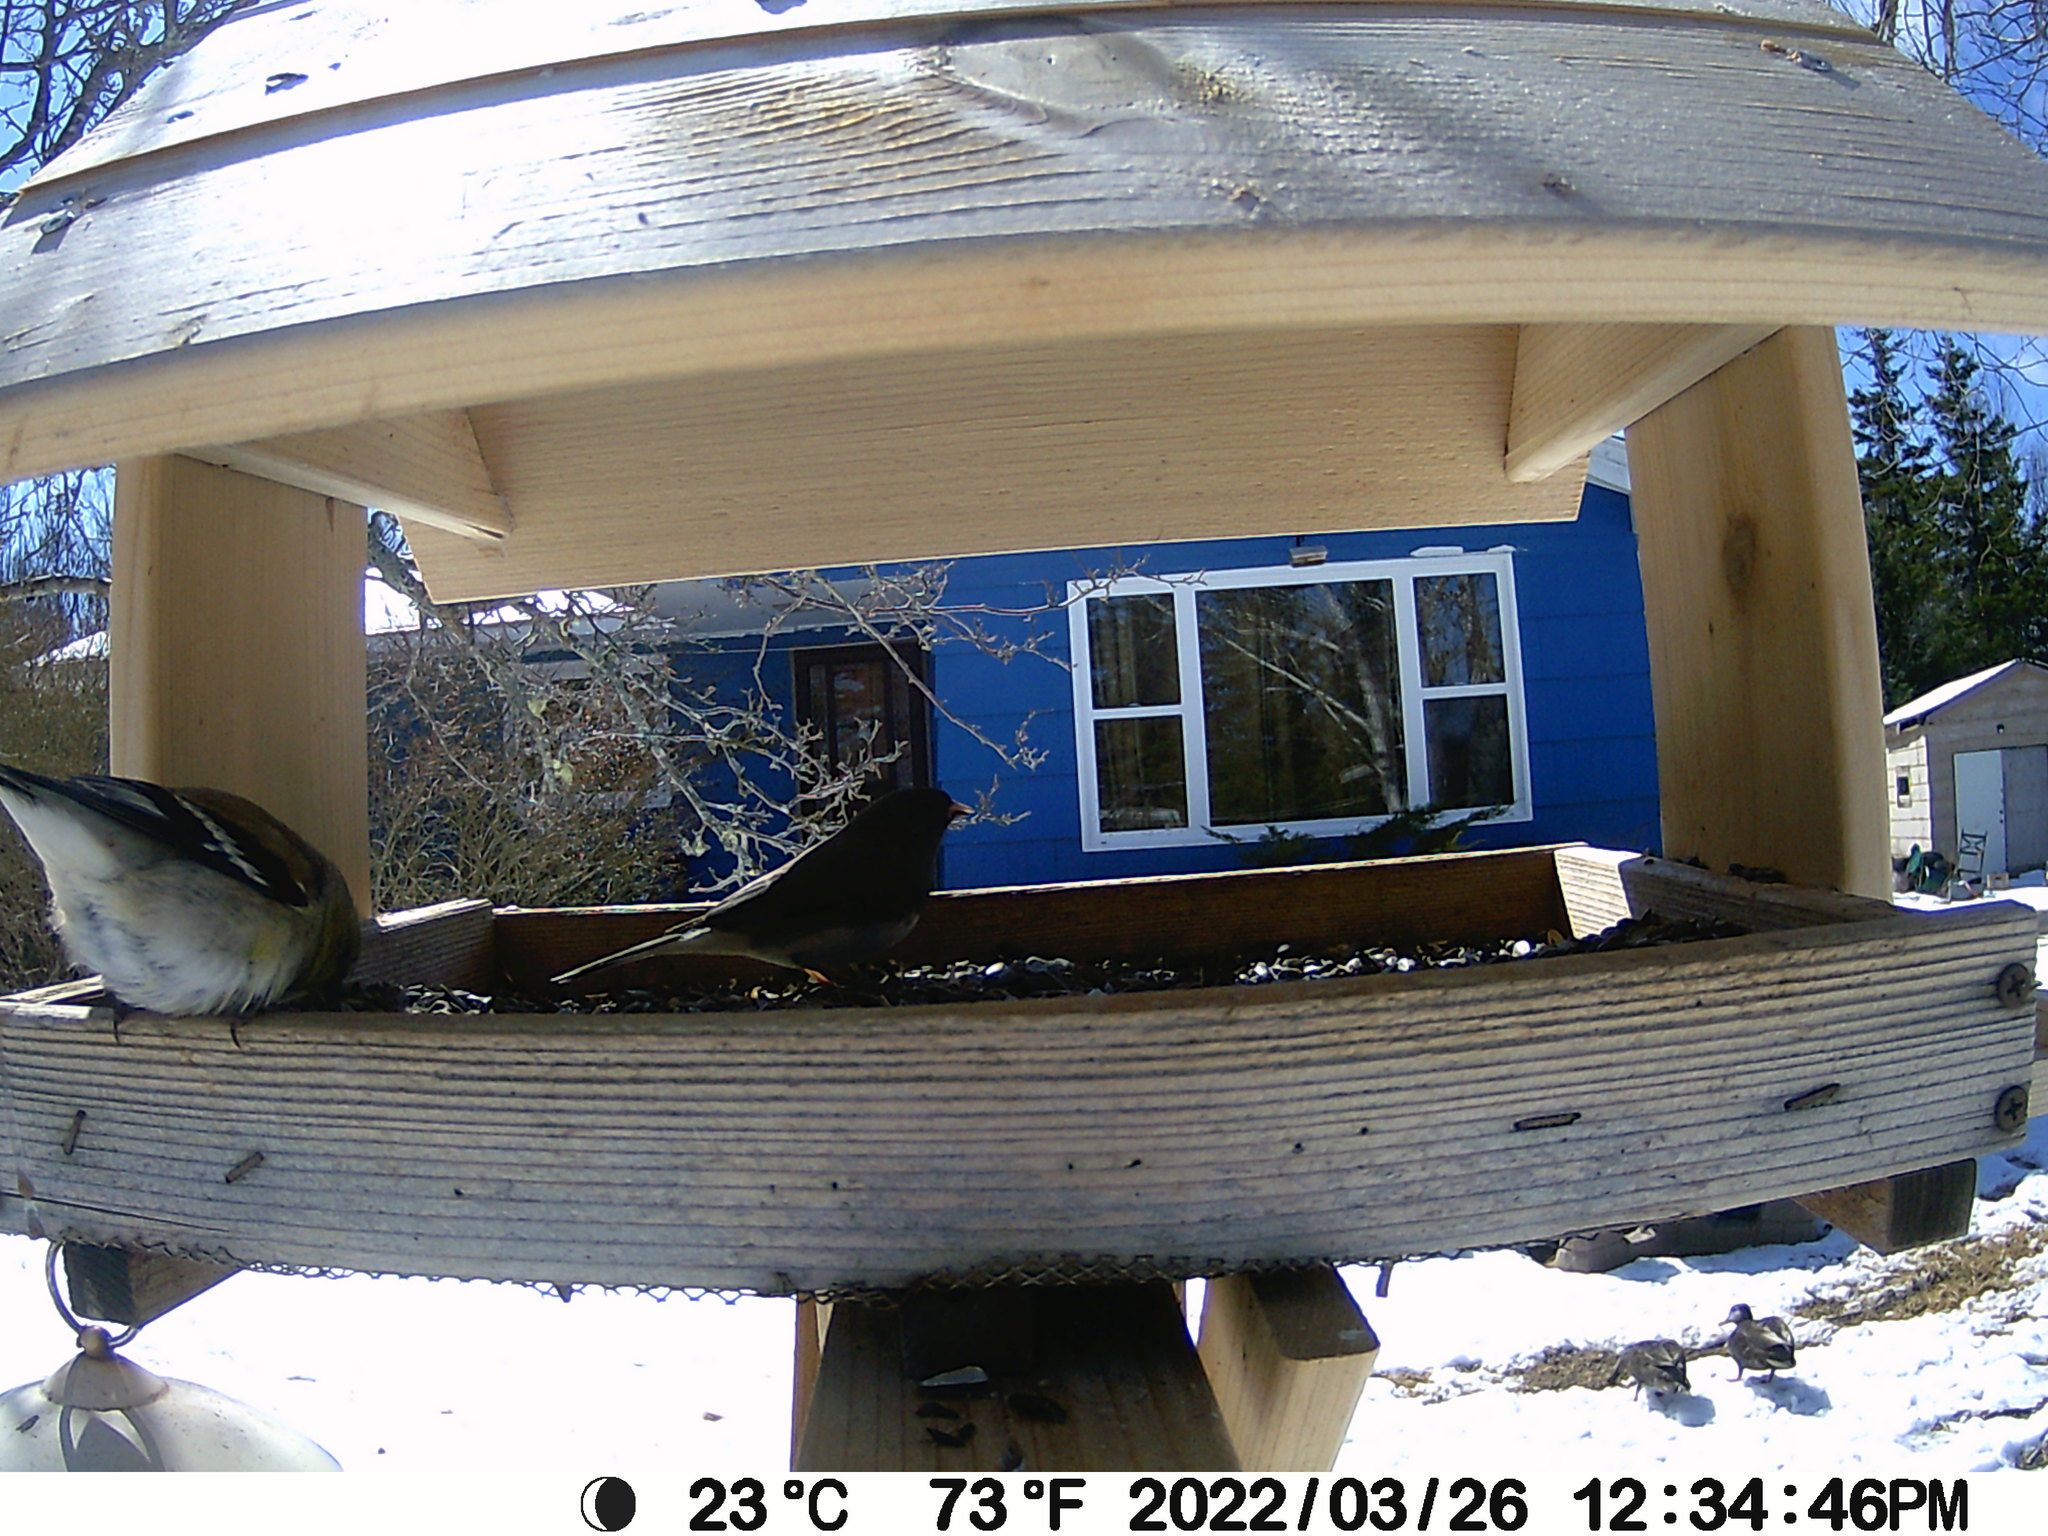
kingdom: Animalia
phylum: Chordata
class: Aves
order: Anseriformes
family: Anatidae
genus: Anas
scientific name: Anas rubripes
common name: American black duck
